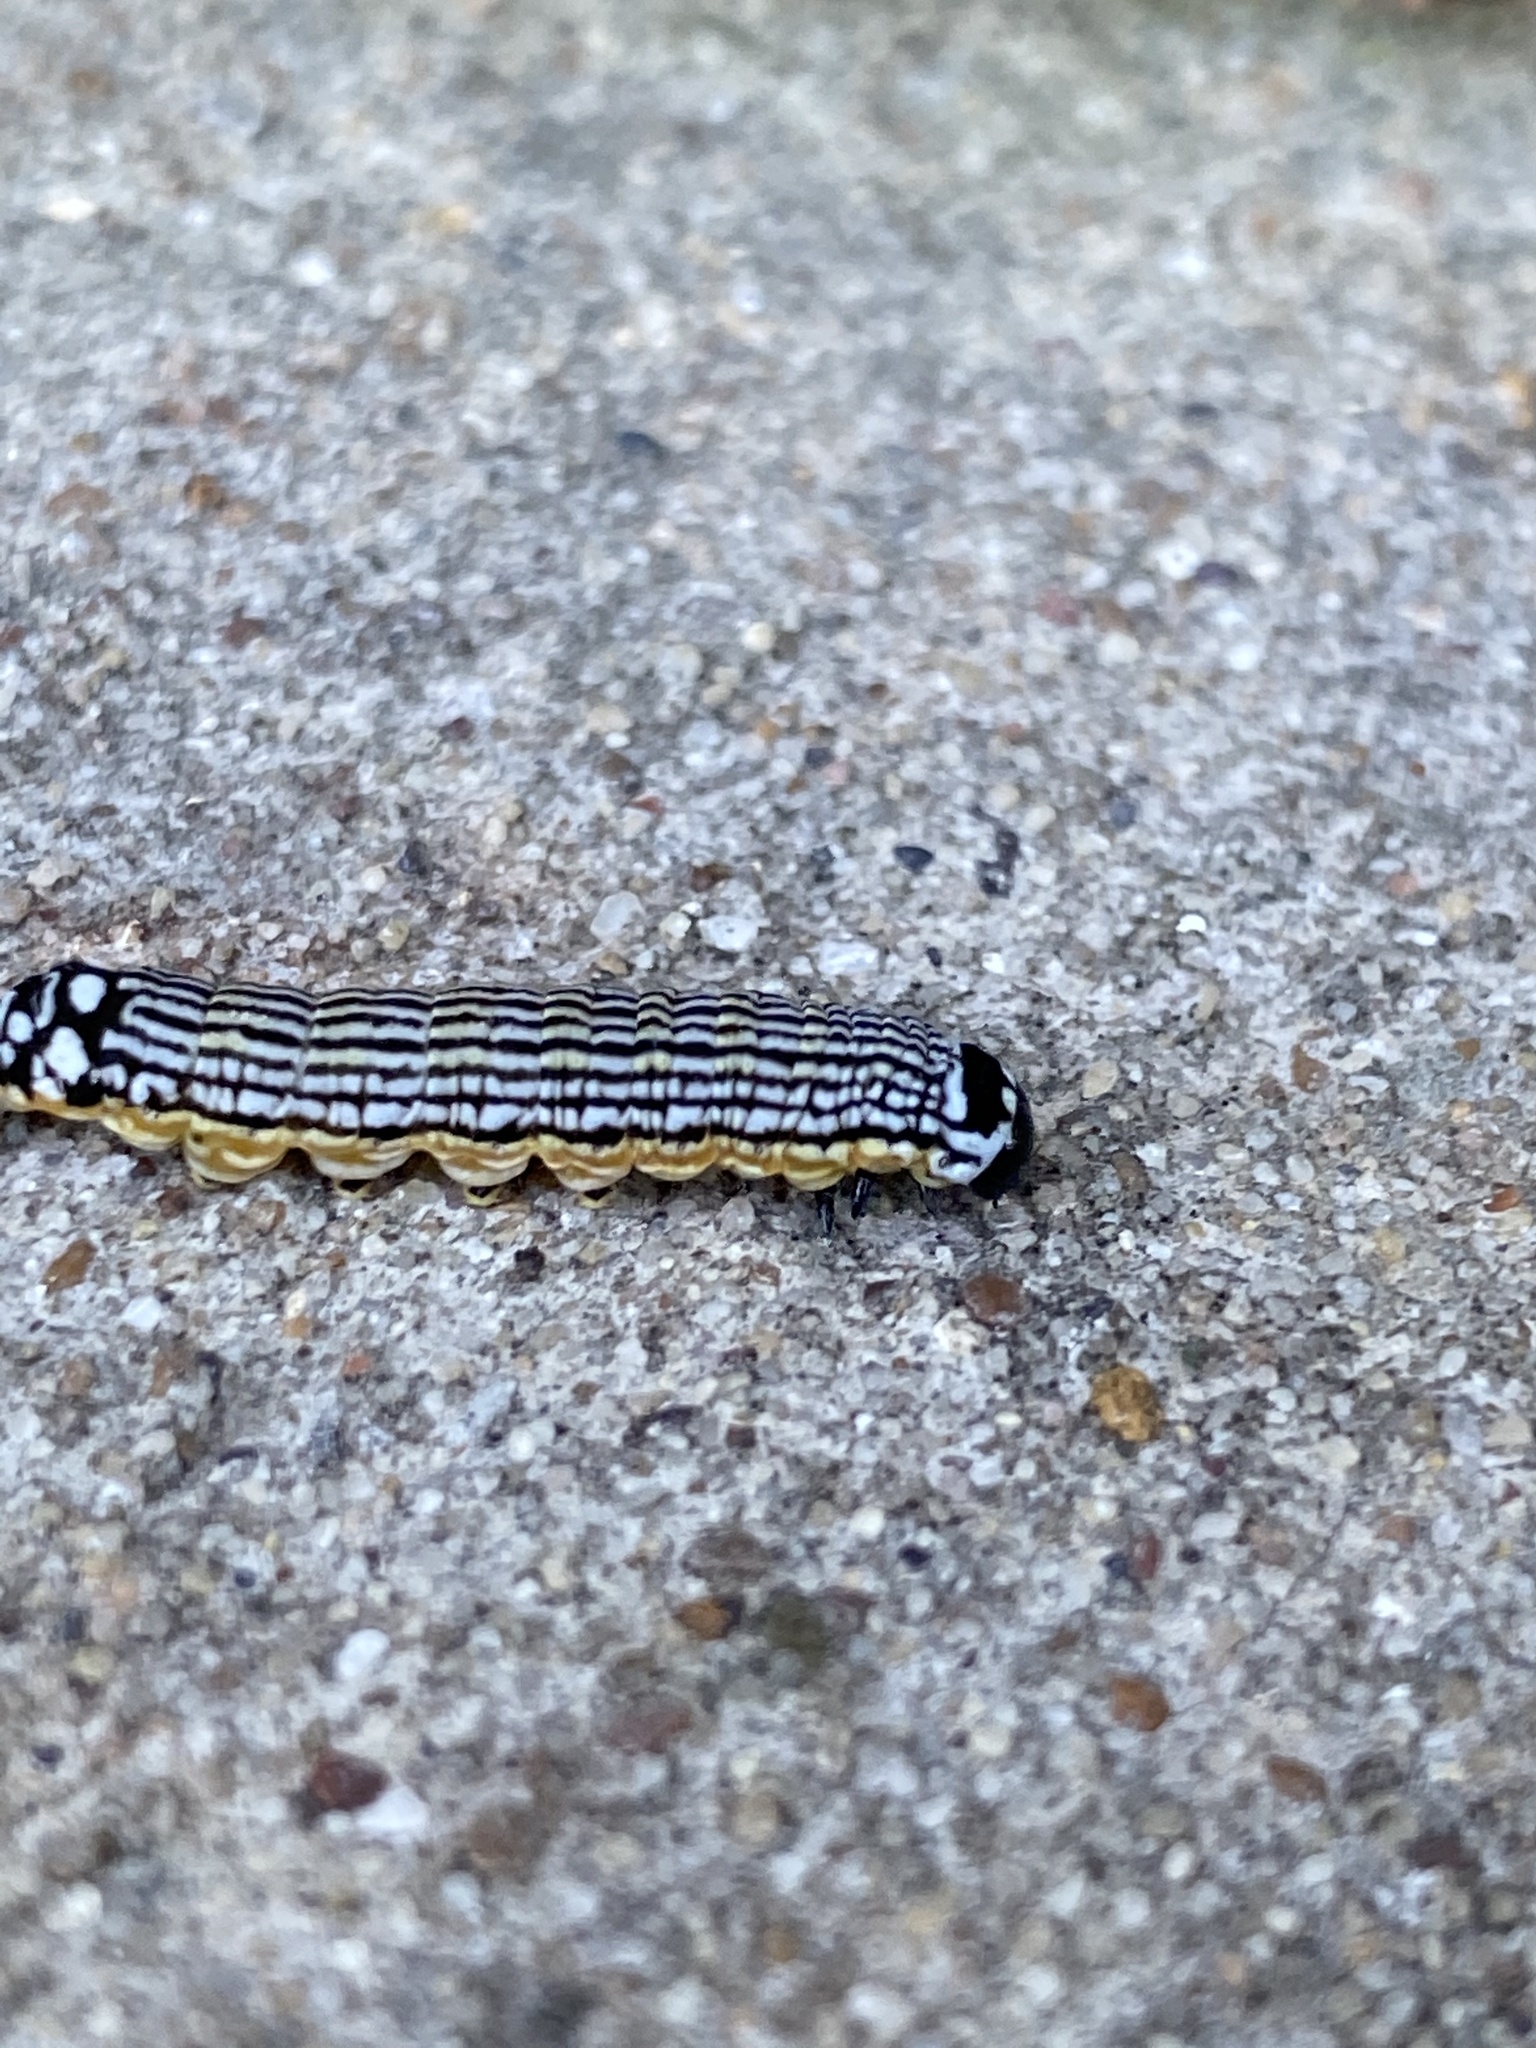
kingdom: Animalia
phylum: Arthropoda
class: Insecta
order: Lepidoptera
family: Noctuidae
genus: Phosphila
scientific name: Phosphila turbulenta
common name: Turbulent phosphila moth
